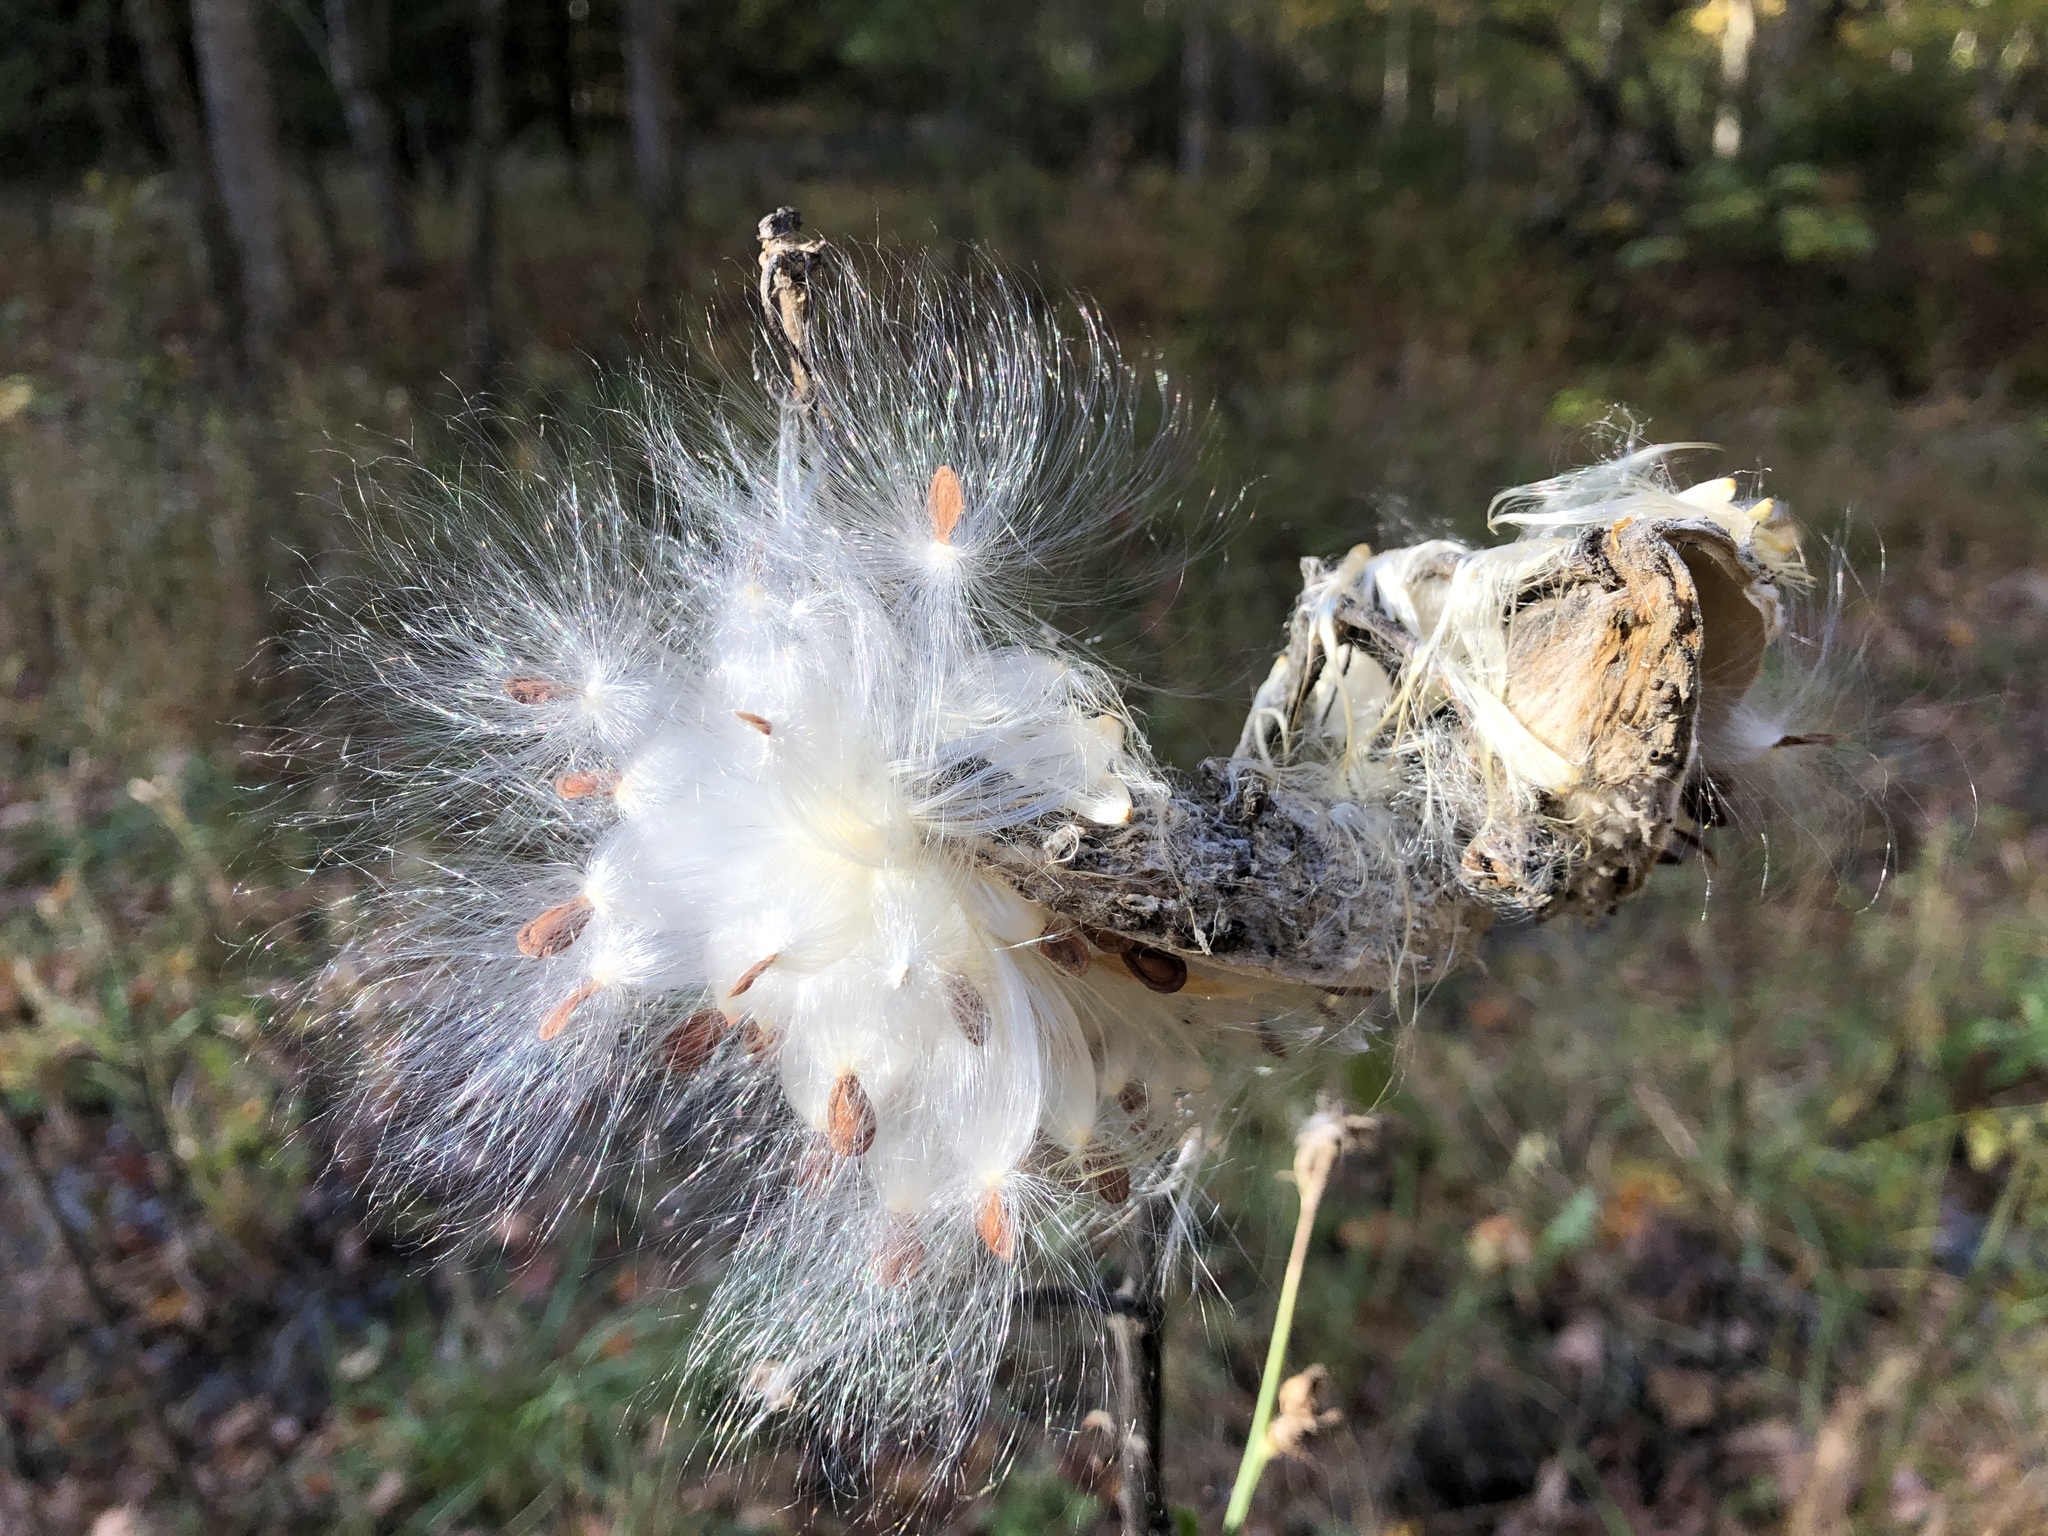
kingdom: Plantae
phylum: Tracheophyta
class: Magnoliopsida
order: Gentianales
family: Apocynaceae
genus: Asclepias
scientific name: Asclepias syriaca
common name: Common milkweed
